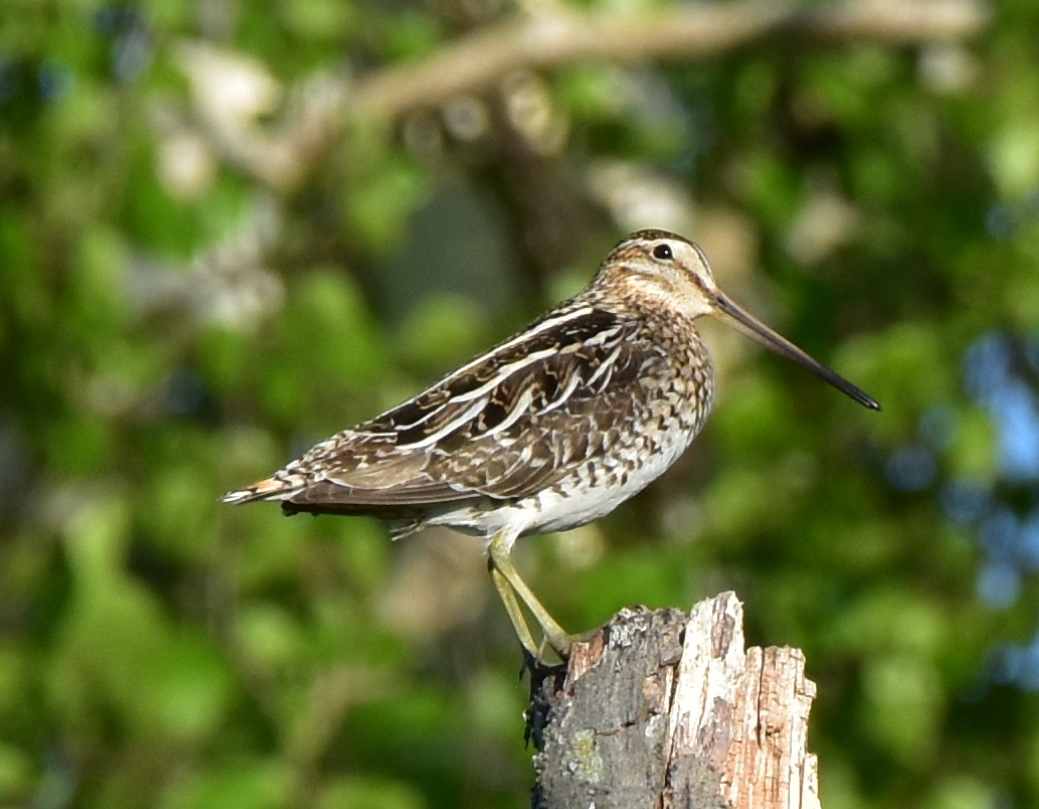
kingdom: Animalia
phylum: Chordata
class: Aves
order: Charadriiformes
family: Scolopacidae
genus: Gallinago
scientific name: Gallinago gallinago
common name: Common snipe
